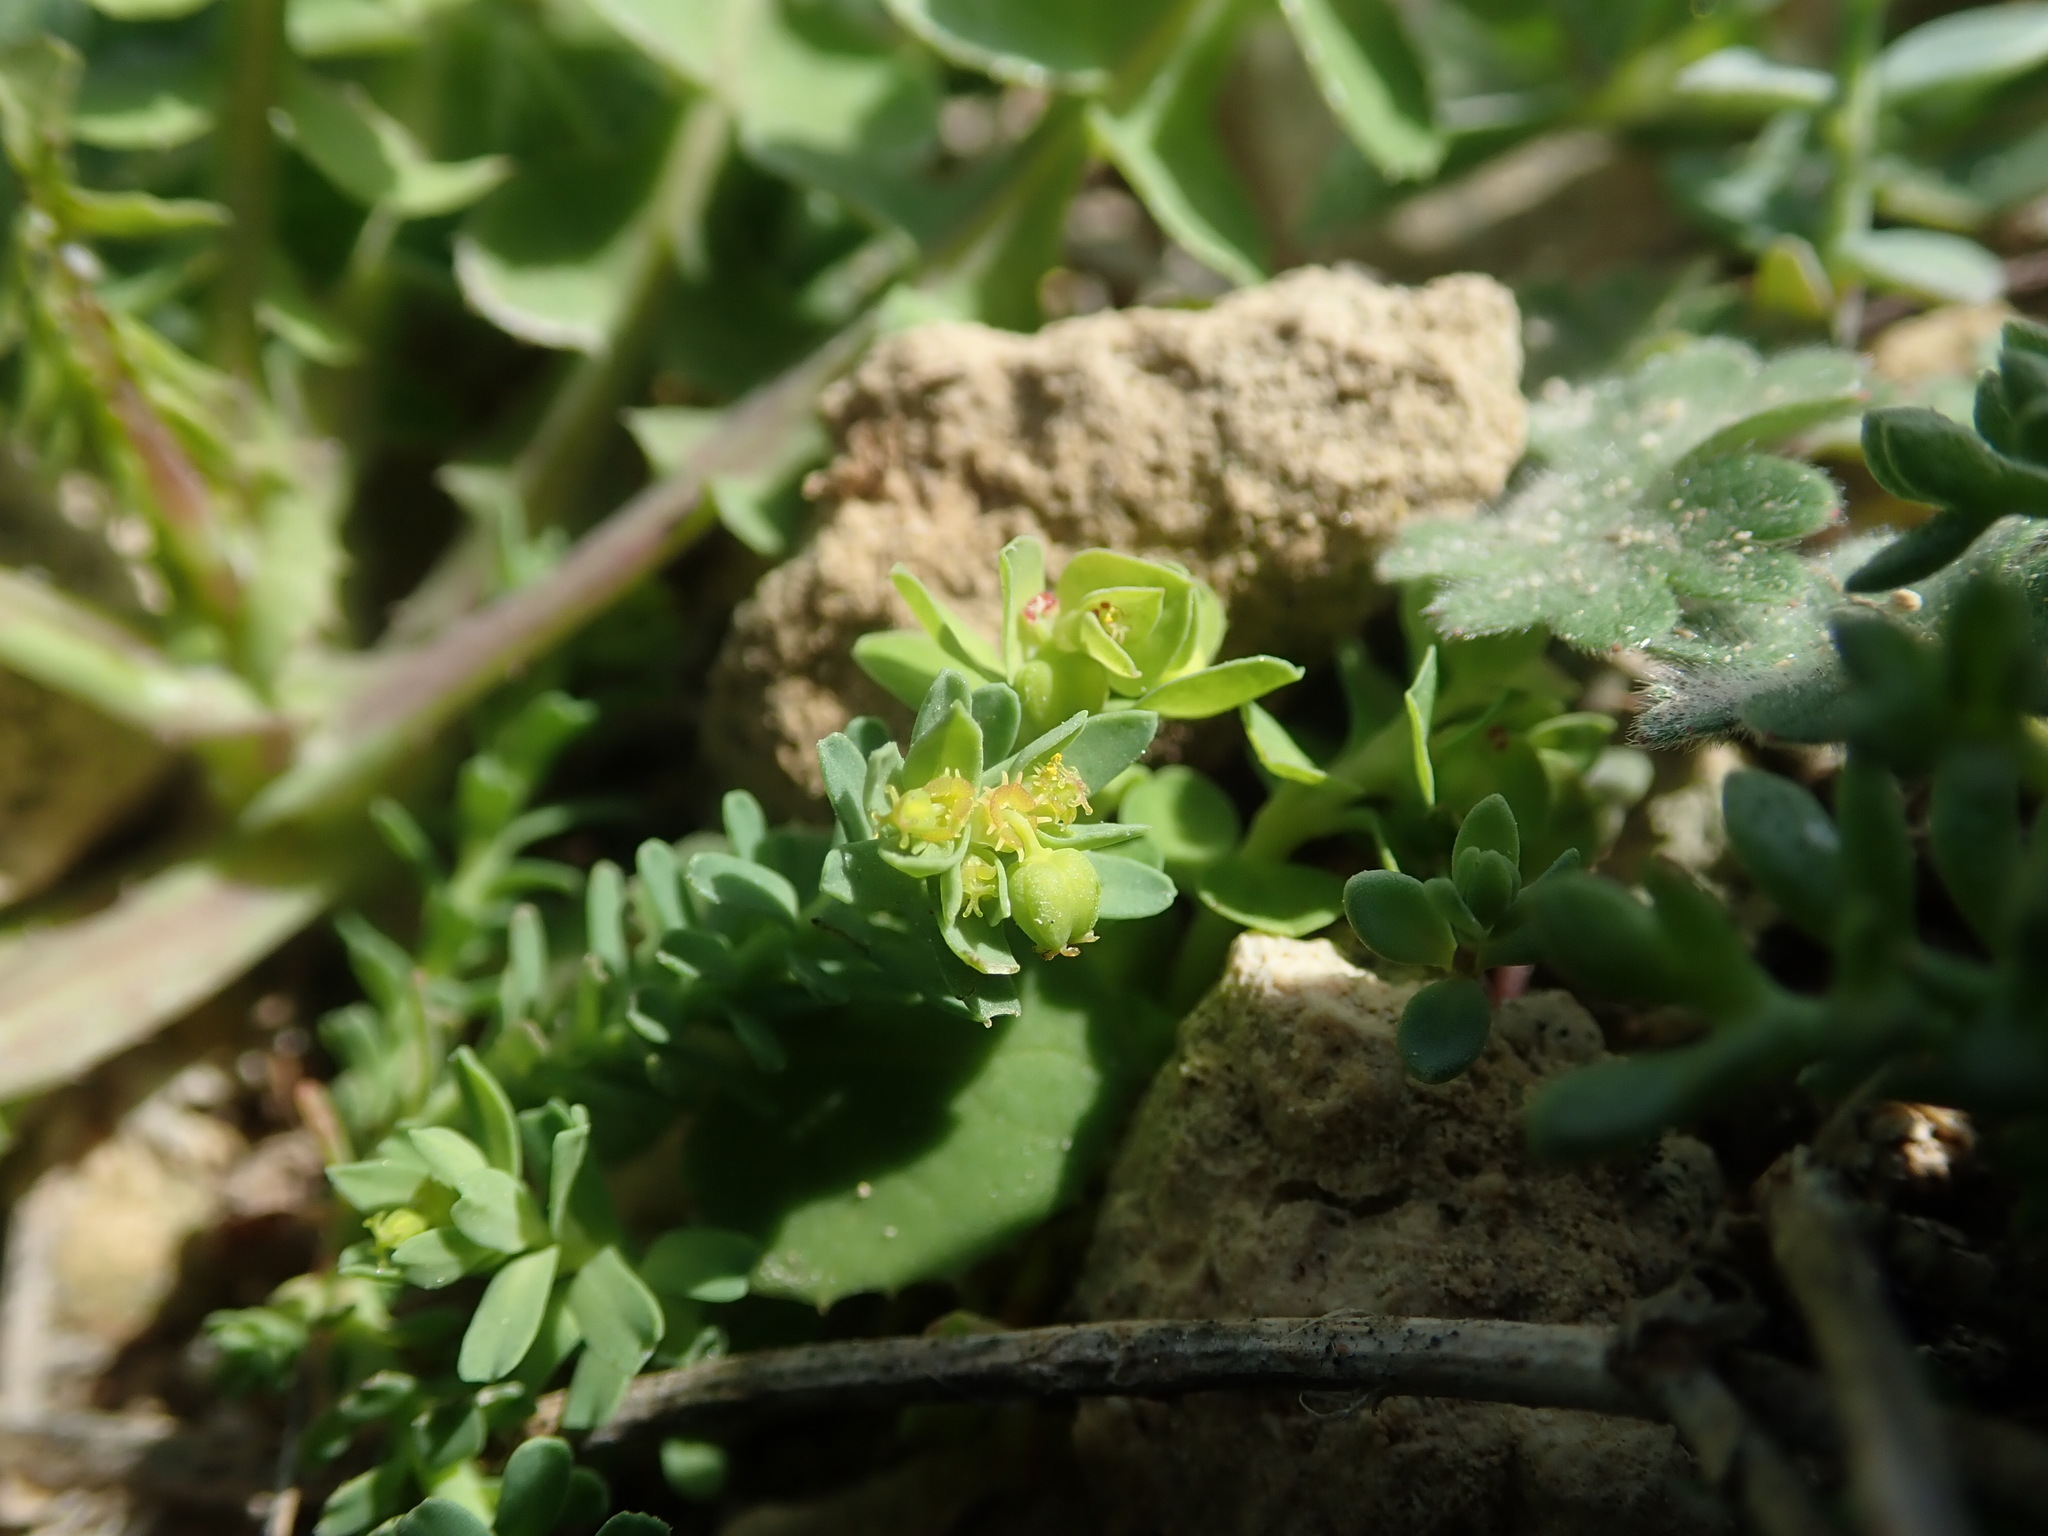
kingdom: Plantae
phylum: Tracheophyta
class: Magnoliopsida
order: Malpighiales
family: Euphorbiaceae
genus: Euphorbia
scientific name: Euphorbia exigua
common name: Dwarf spurge
